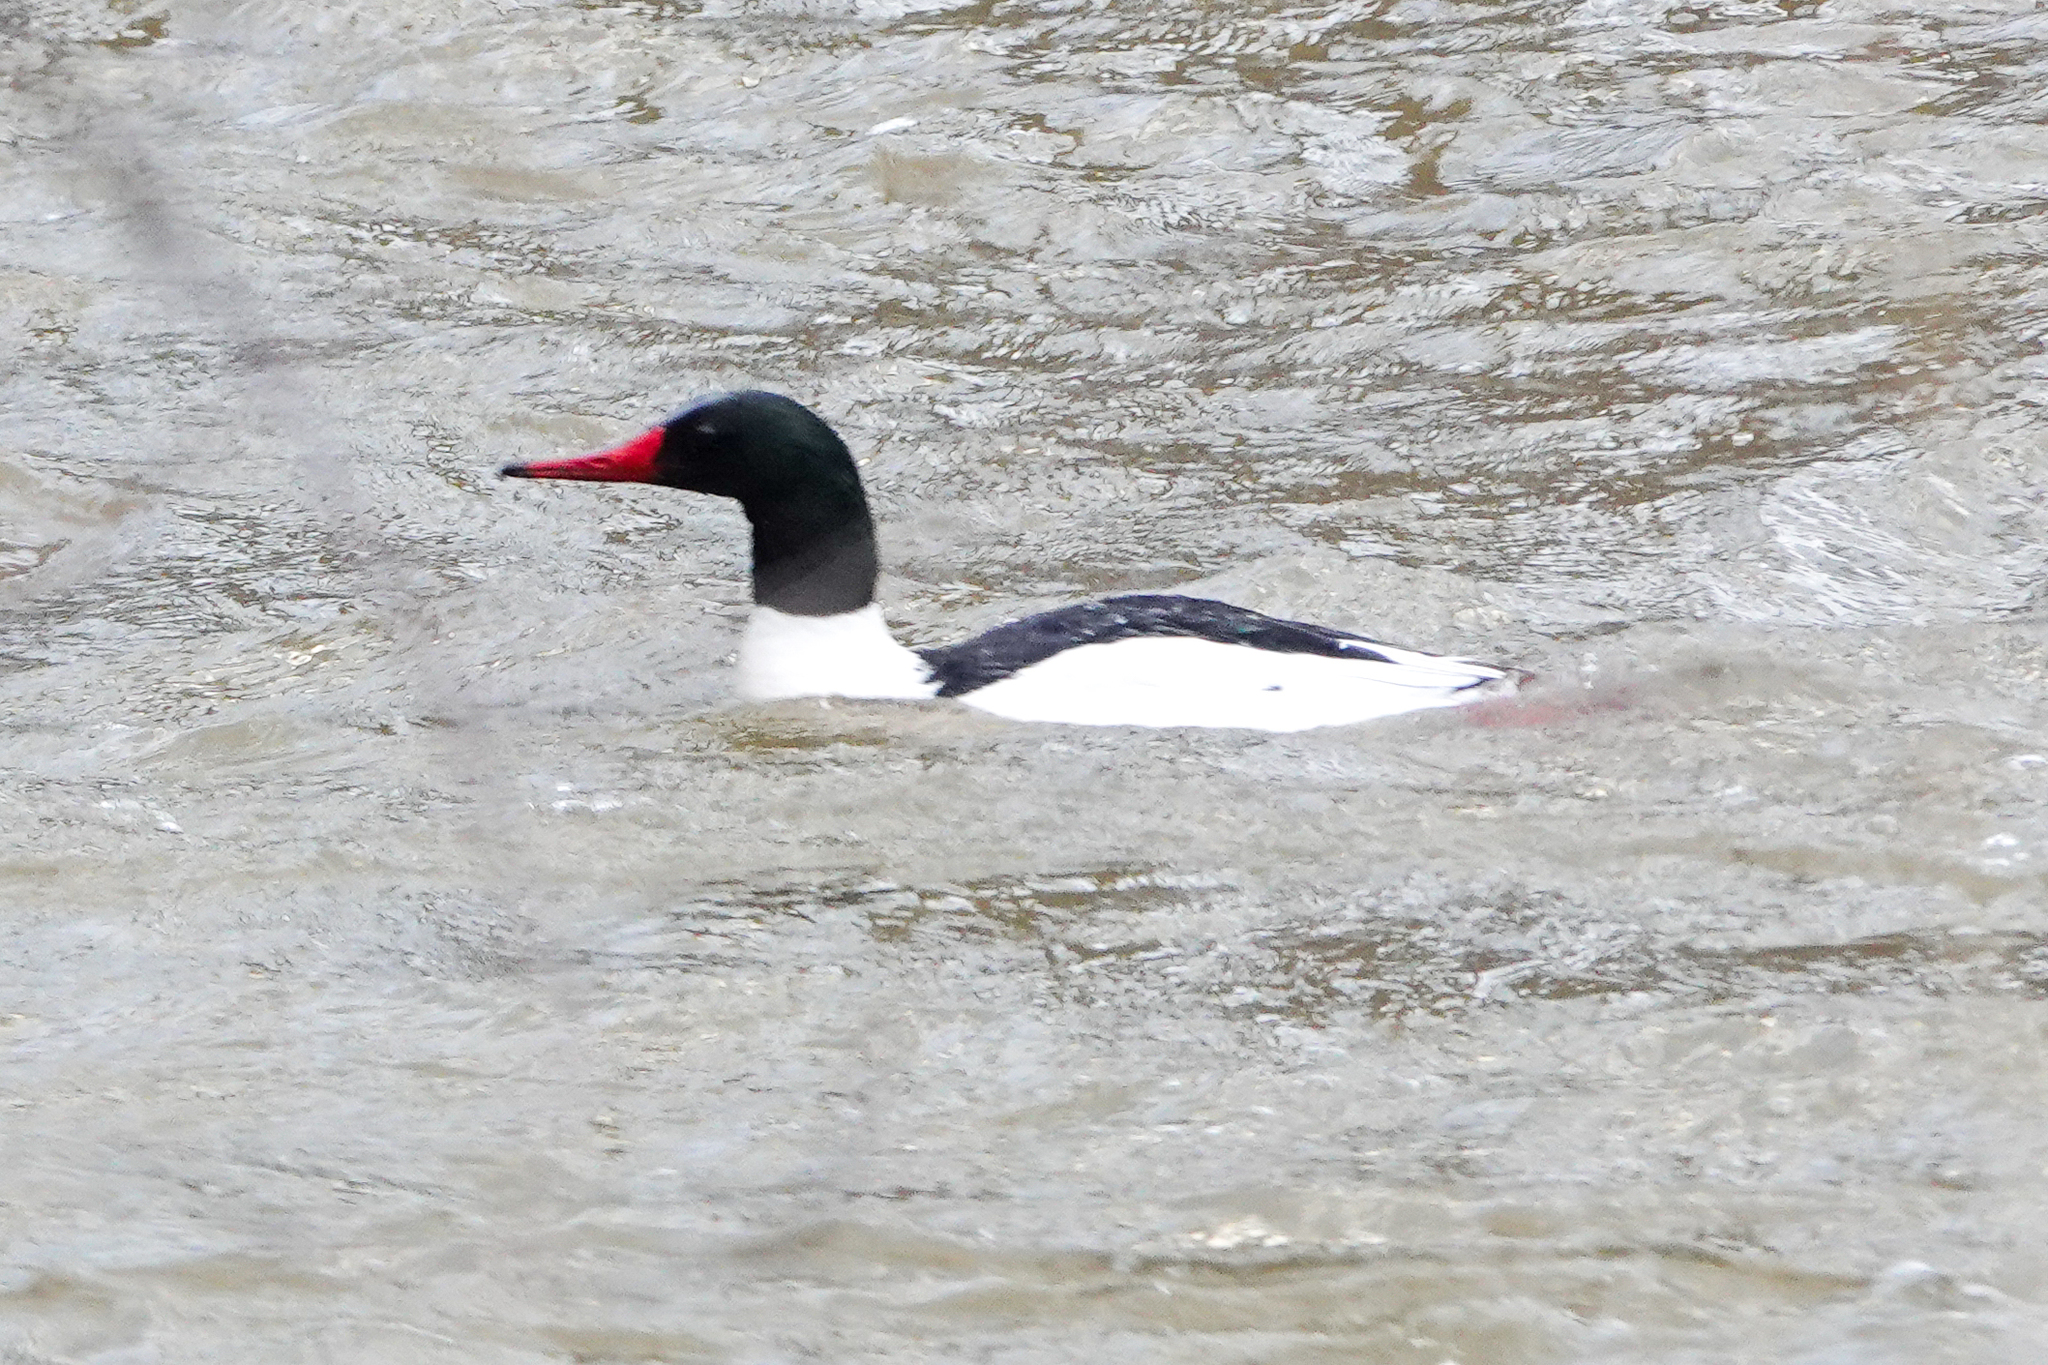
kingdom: Animalia
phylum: Chordata
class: Aves
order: Anseriformes
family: Anatidae
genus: Mergus
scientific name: Mergus merganser
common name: Common merganser
